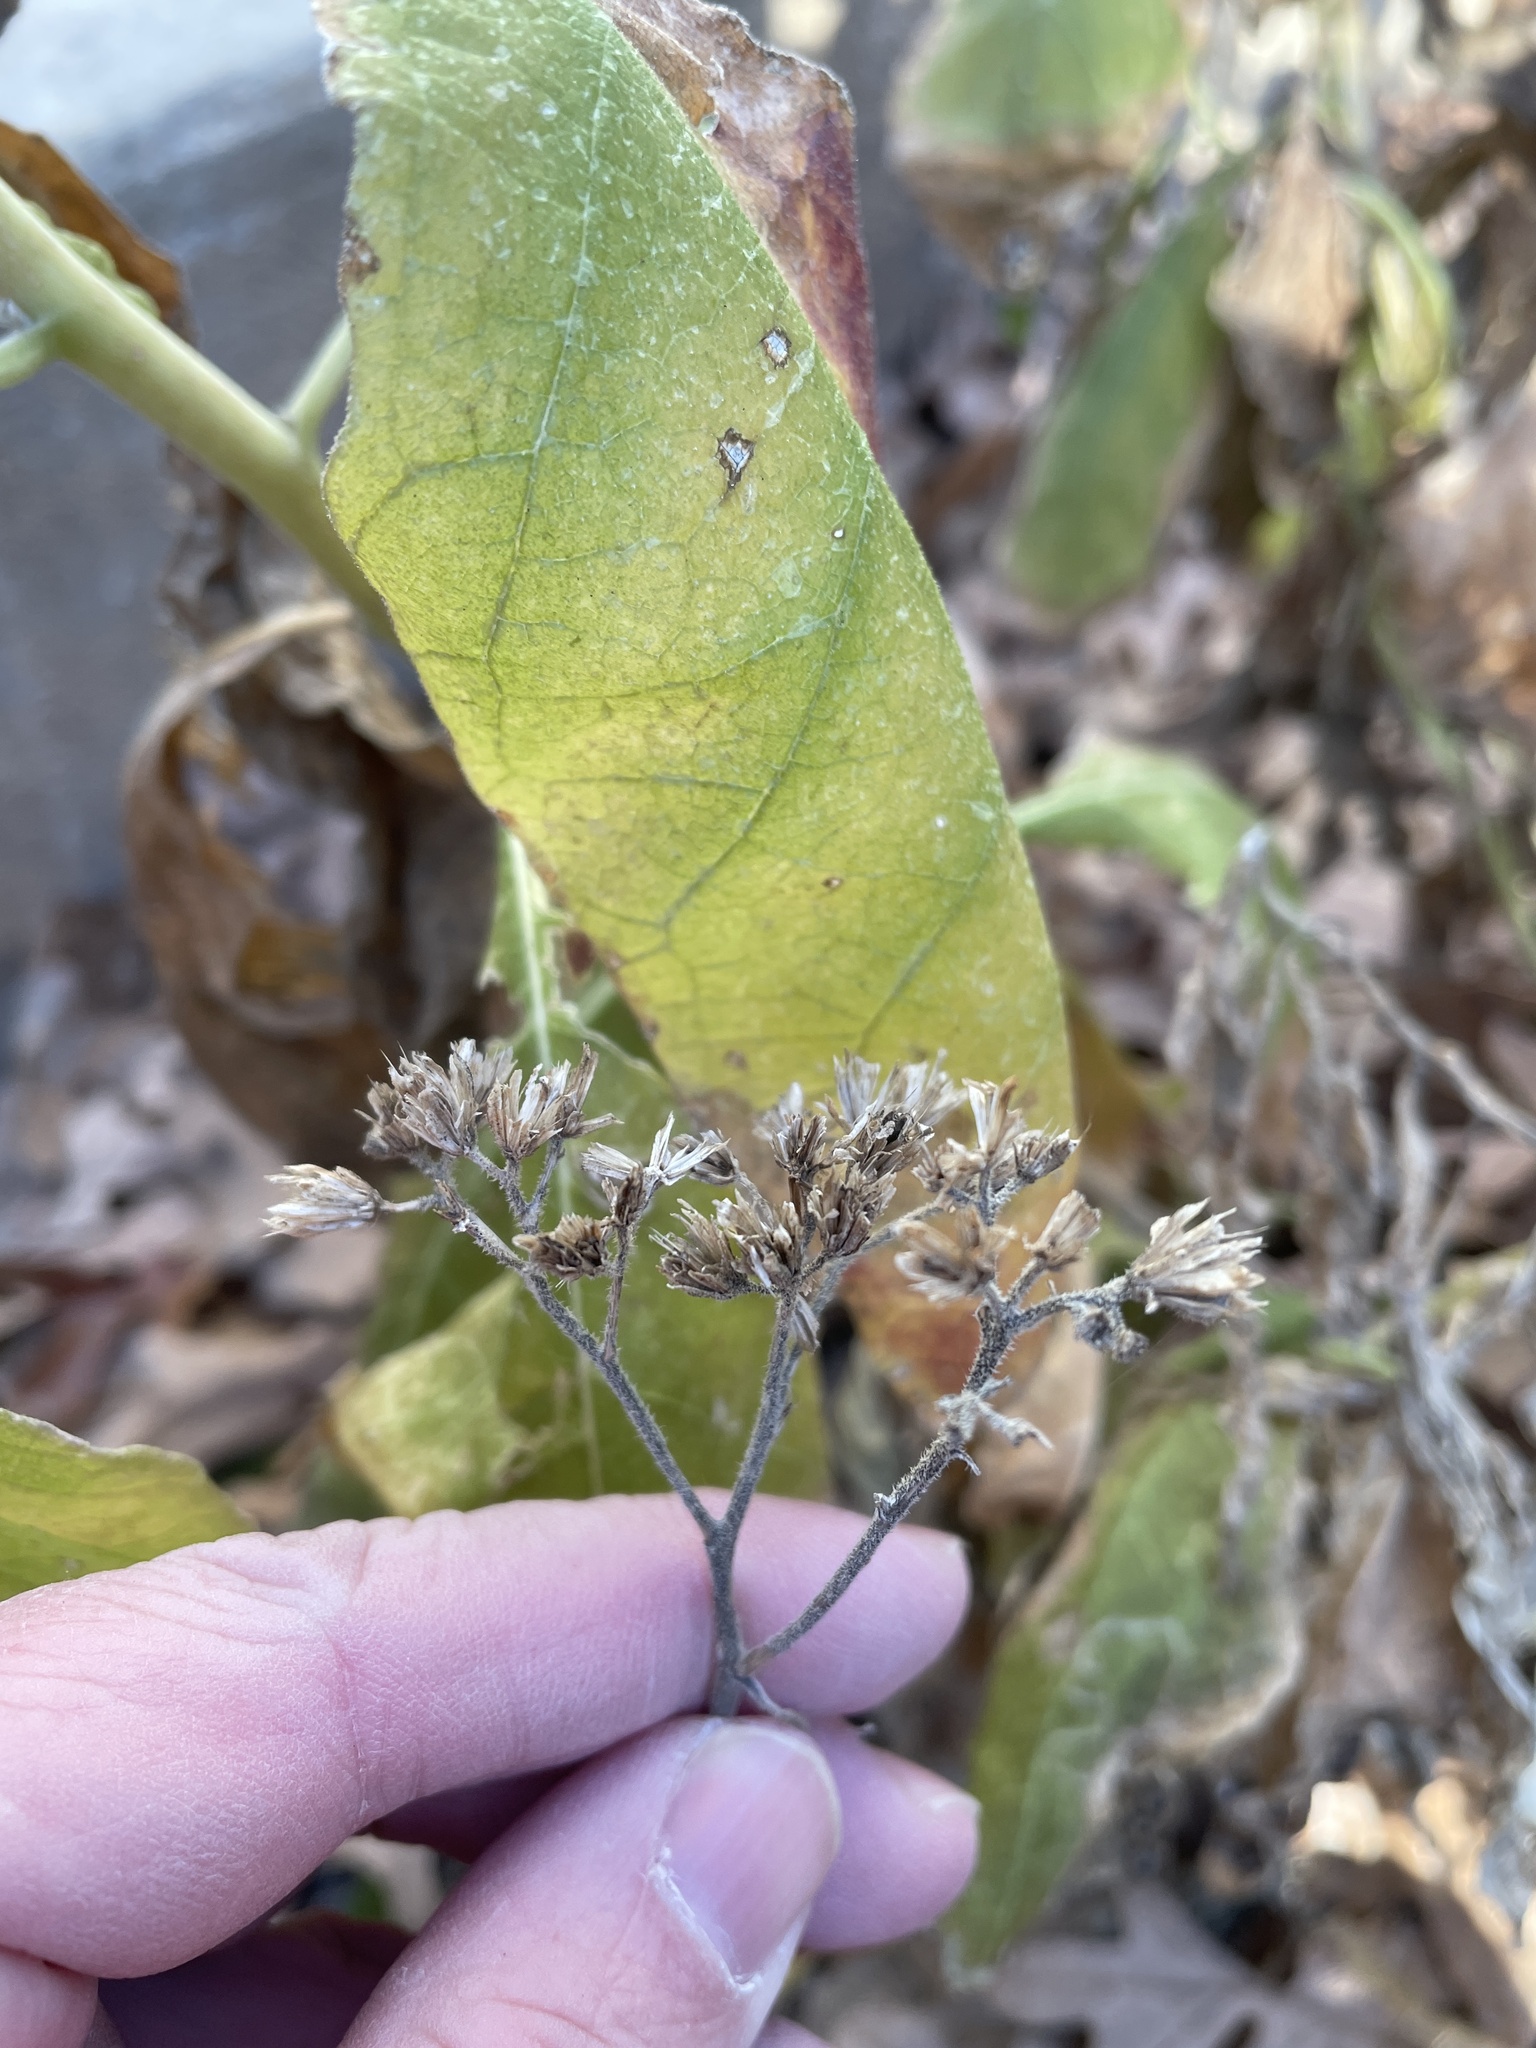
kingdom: Plantae
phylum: Tracheophyta
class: Magnoliopsida
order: Asterales
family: Asteraceae
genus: Verbesina
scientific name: Verbesina virginica
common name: Frostweed
